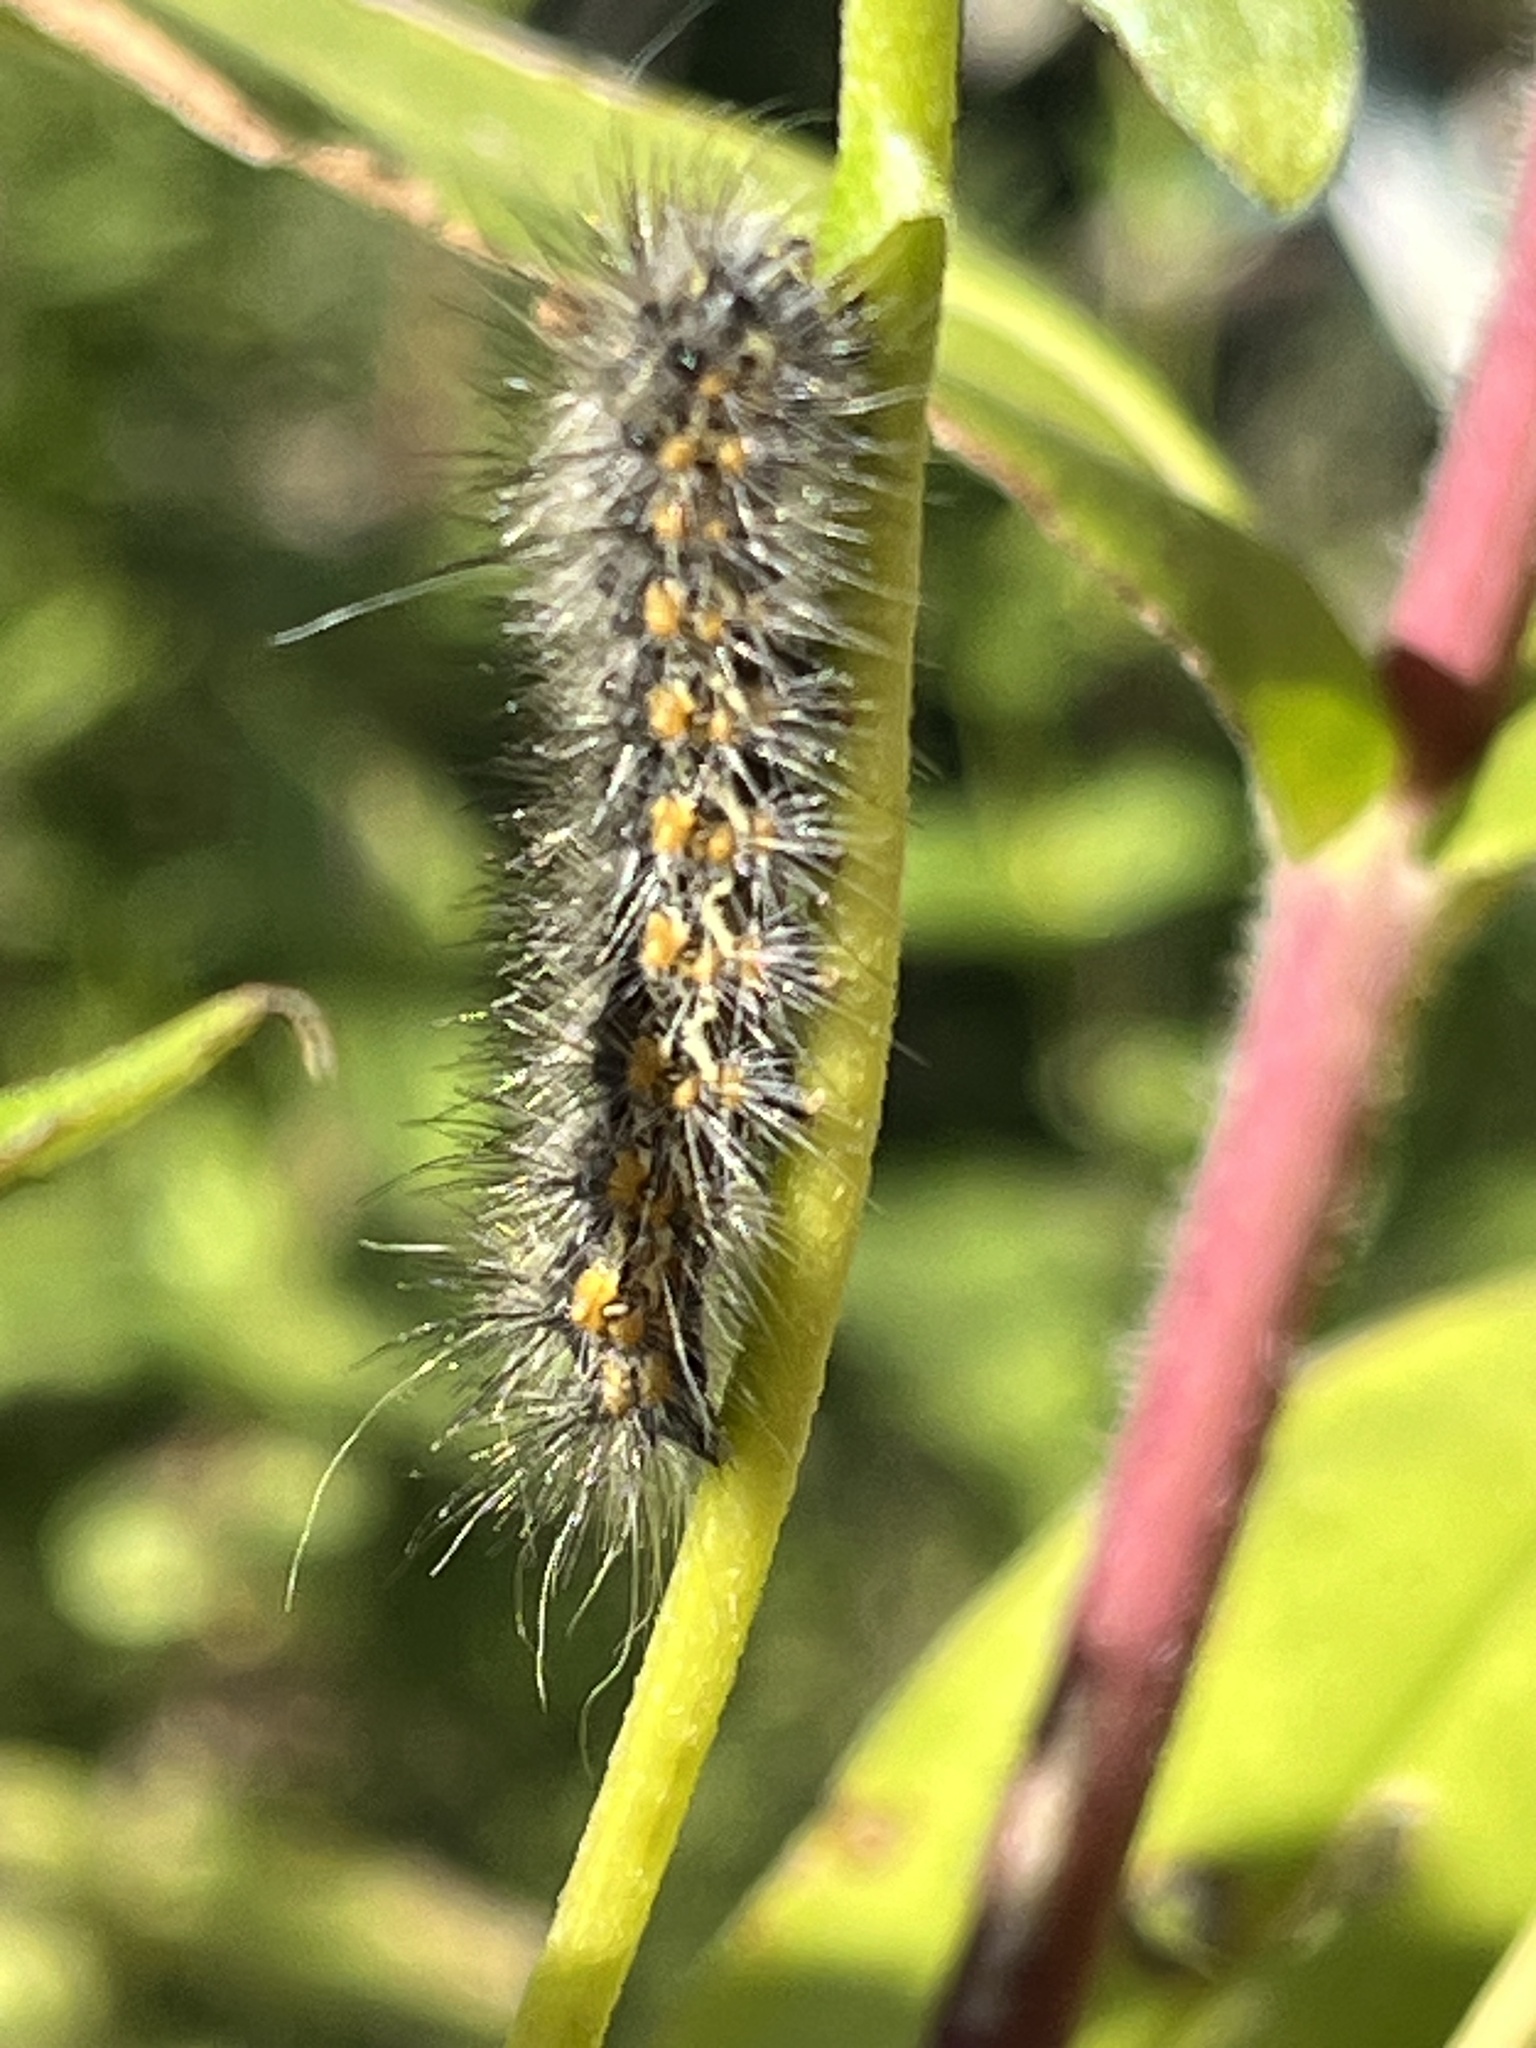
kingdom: Animalia
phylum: Arthropoda
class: Insecta
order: Lepidoptera
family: Erebidae
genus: Estigmene
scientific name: Estigmene acrea
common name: Salt marsh moth
